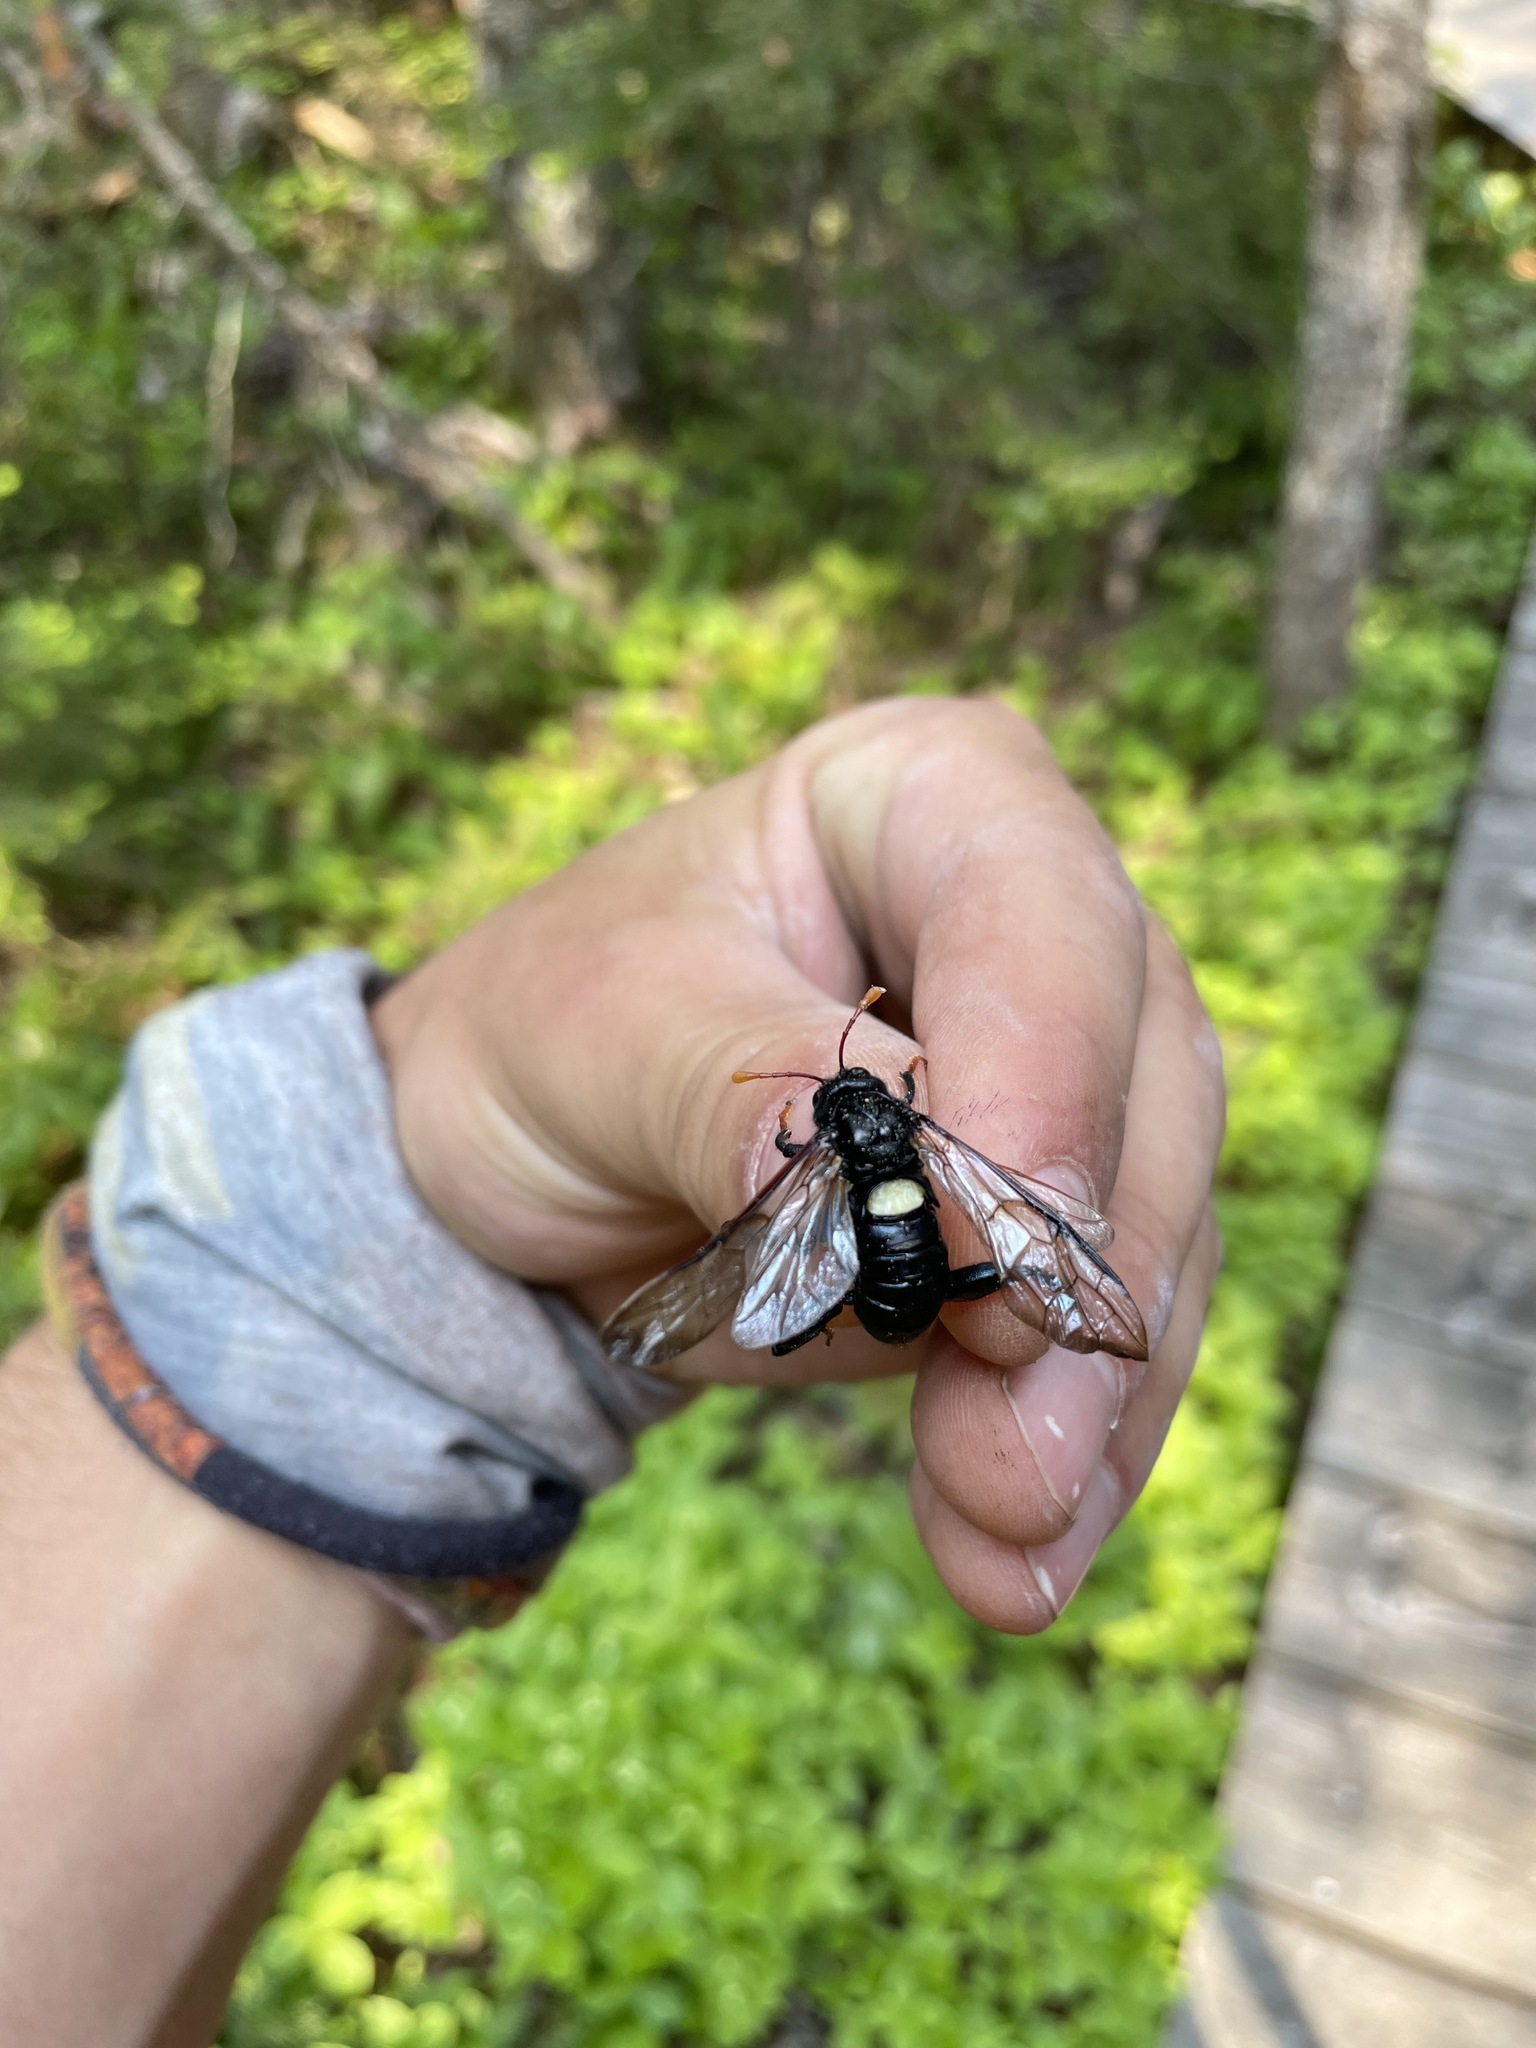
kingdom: Animalia
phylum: Arthropoda
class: Insecta
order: Hymenoptera
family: Cimbicidae
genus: Cimbex
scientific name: Cimbex americana
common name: Elm sawfly
